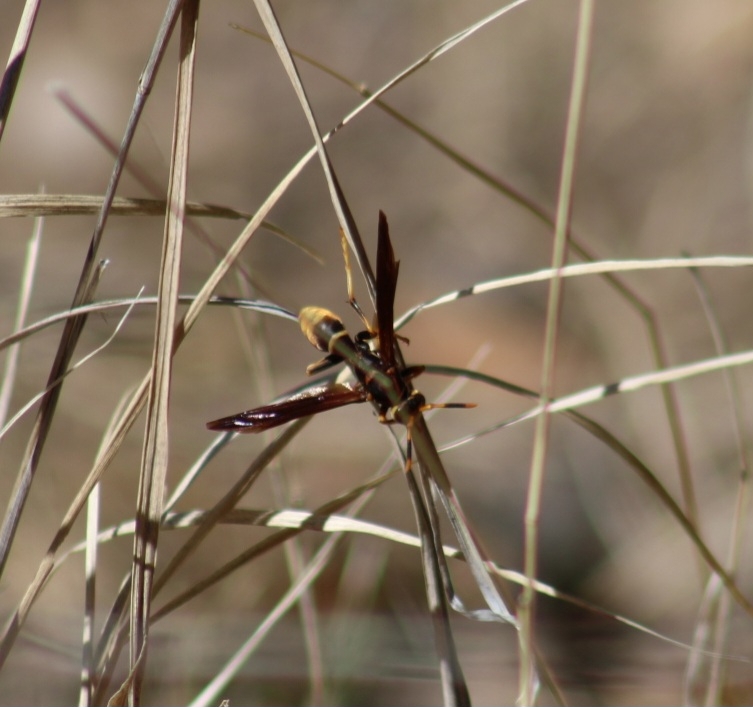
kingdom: Animalia
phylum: Arthropoda
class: Insecta
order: Hymenoptera
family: Eumenidae
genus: Polistes
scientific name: Polistes comanchus
